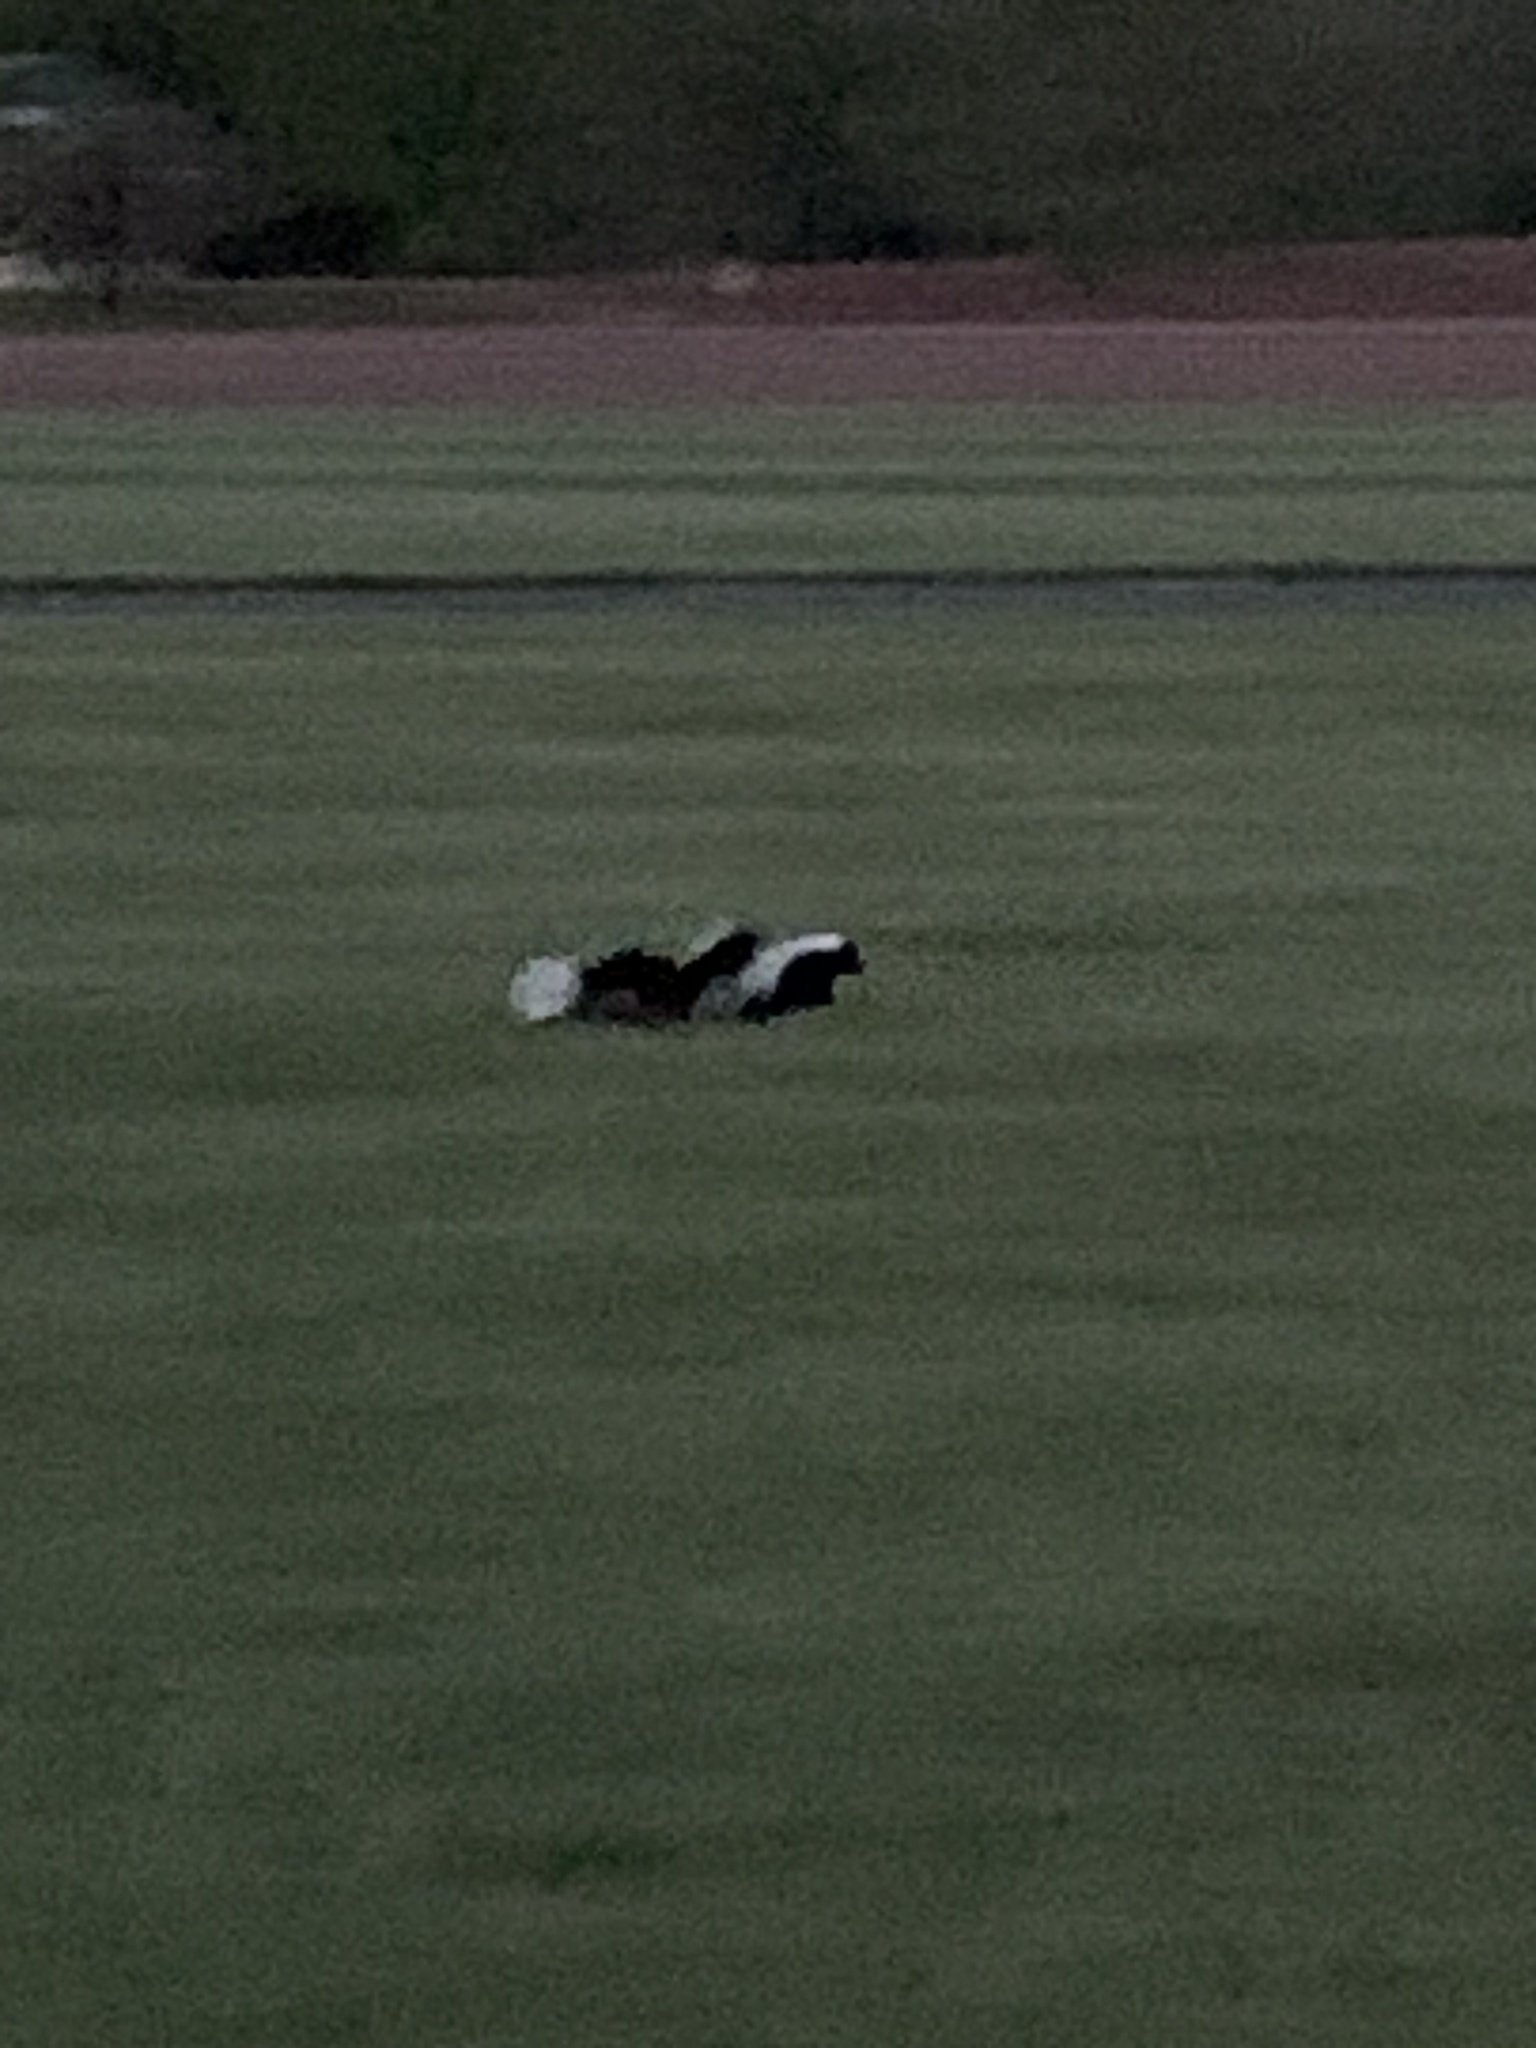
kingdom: Animalia
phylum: Chordata
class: Mammalia
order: Carnivora
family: Mephitidae
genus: Mephitis
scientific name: Mephitis mephitis
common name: Striped skunk
